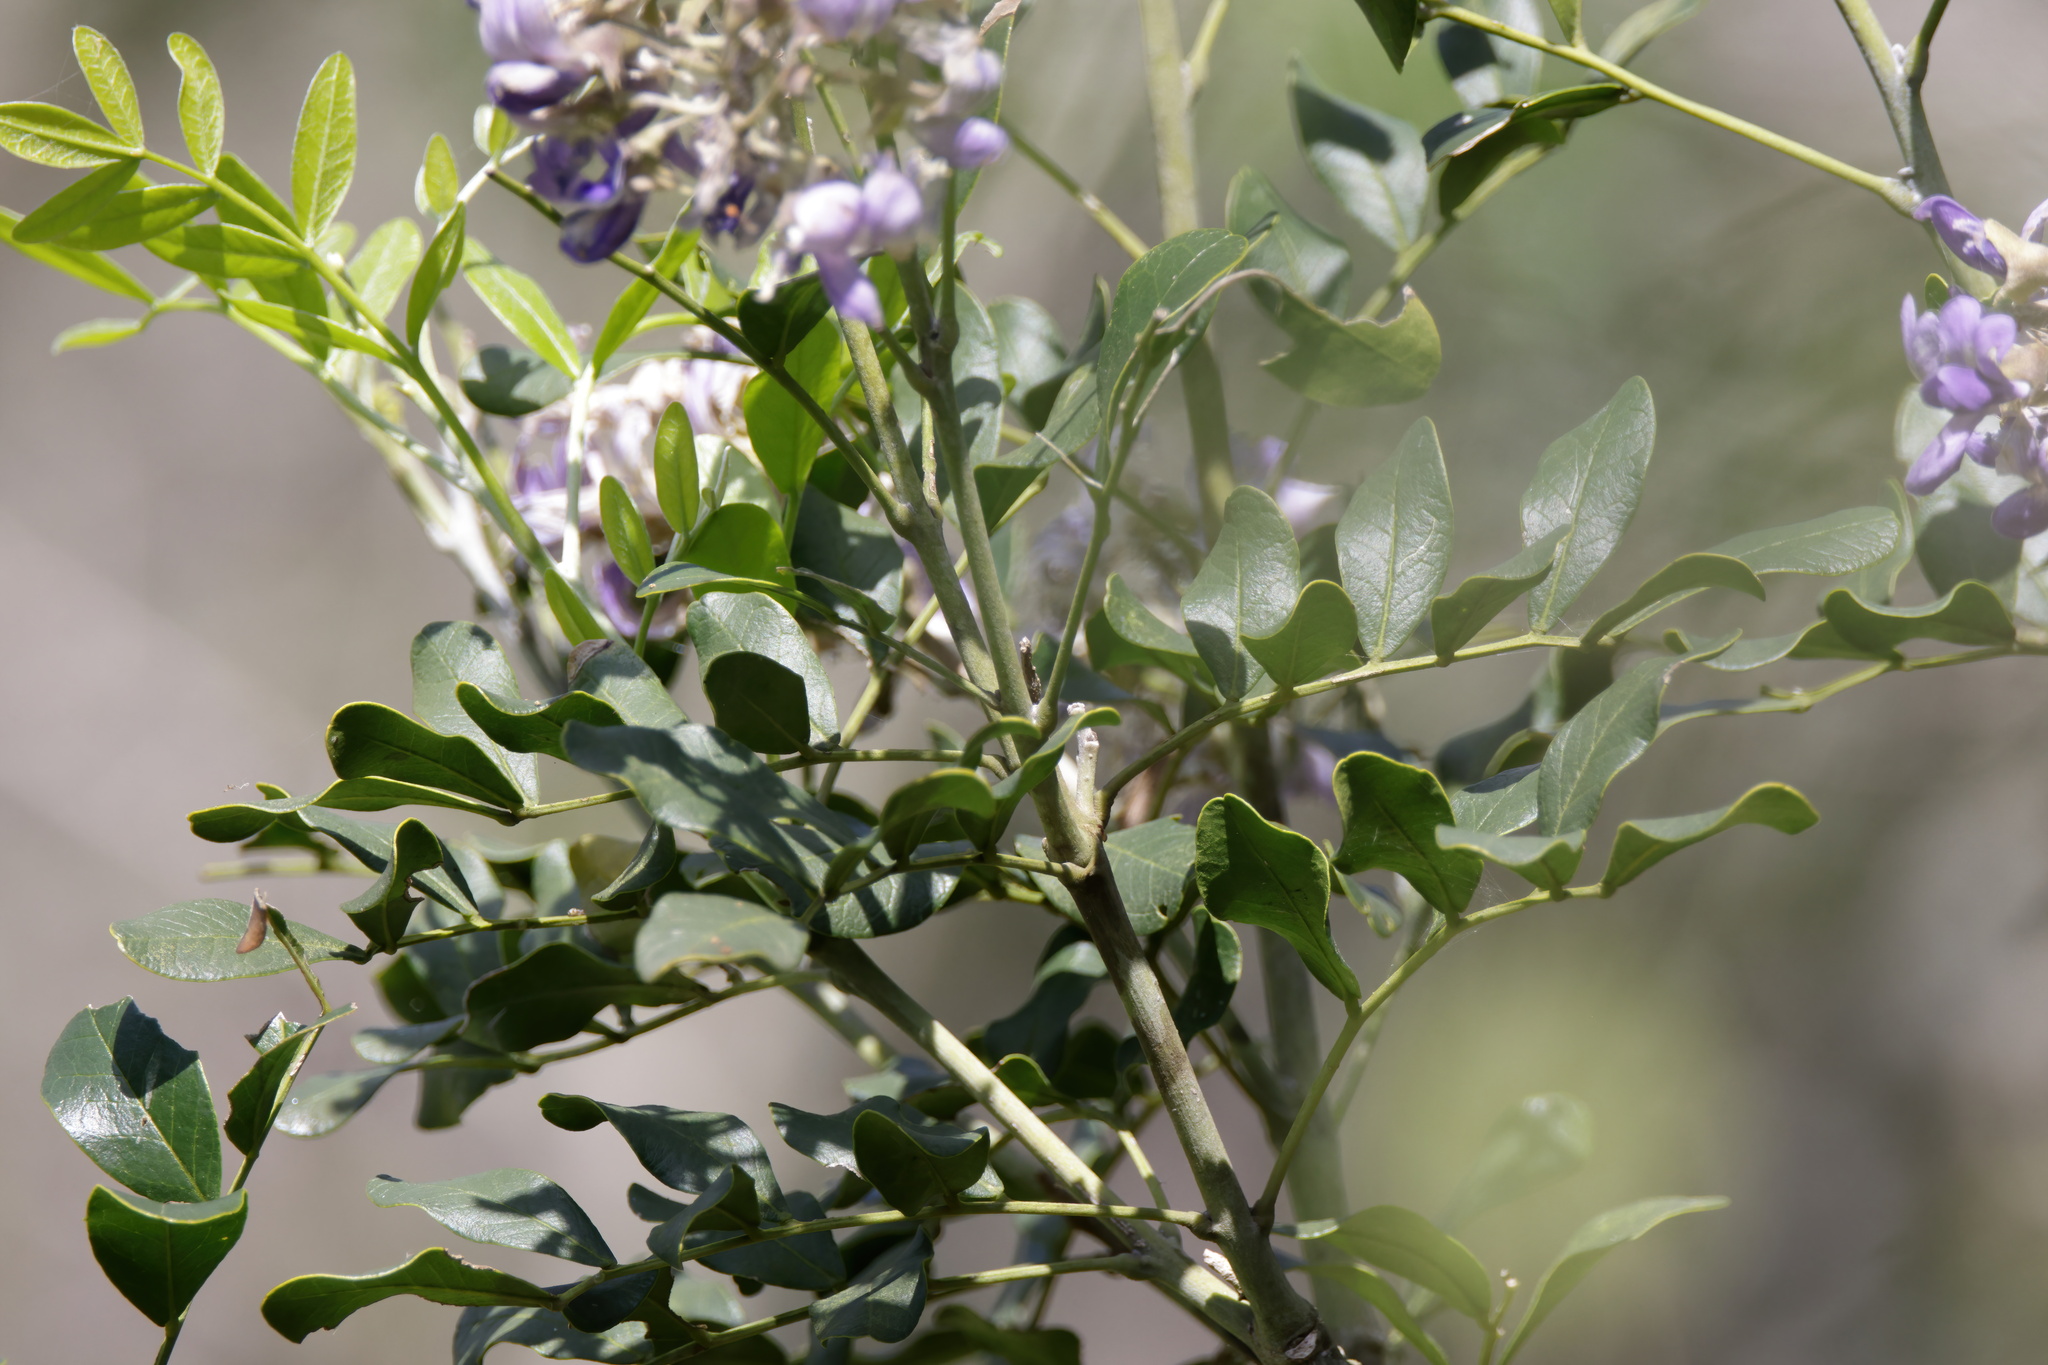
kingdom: Plantae
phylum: Tracheophyta
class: Magnoliopsida
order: Fabales
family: Fabaceae
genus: Dermatophyllum
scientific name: Dermatophyllum secundiflorum
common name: Texas-mountain-laurel
